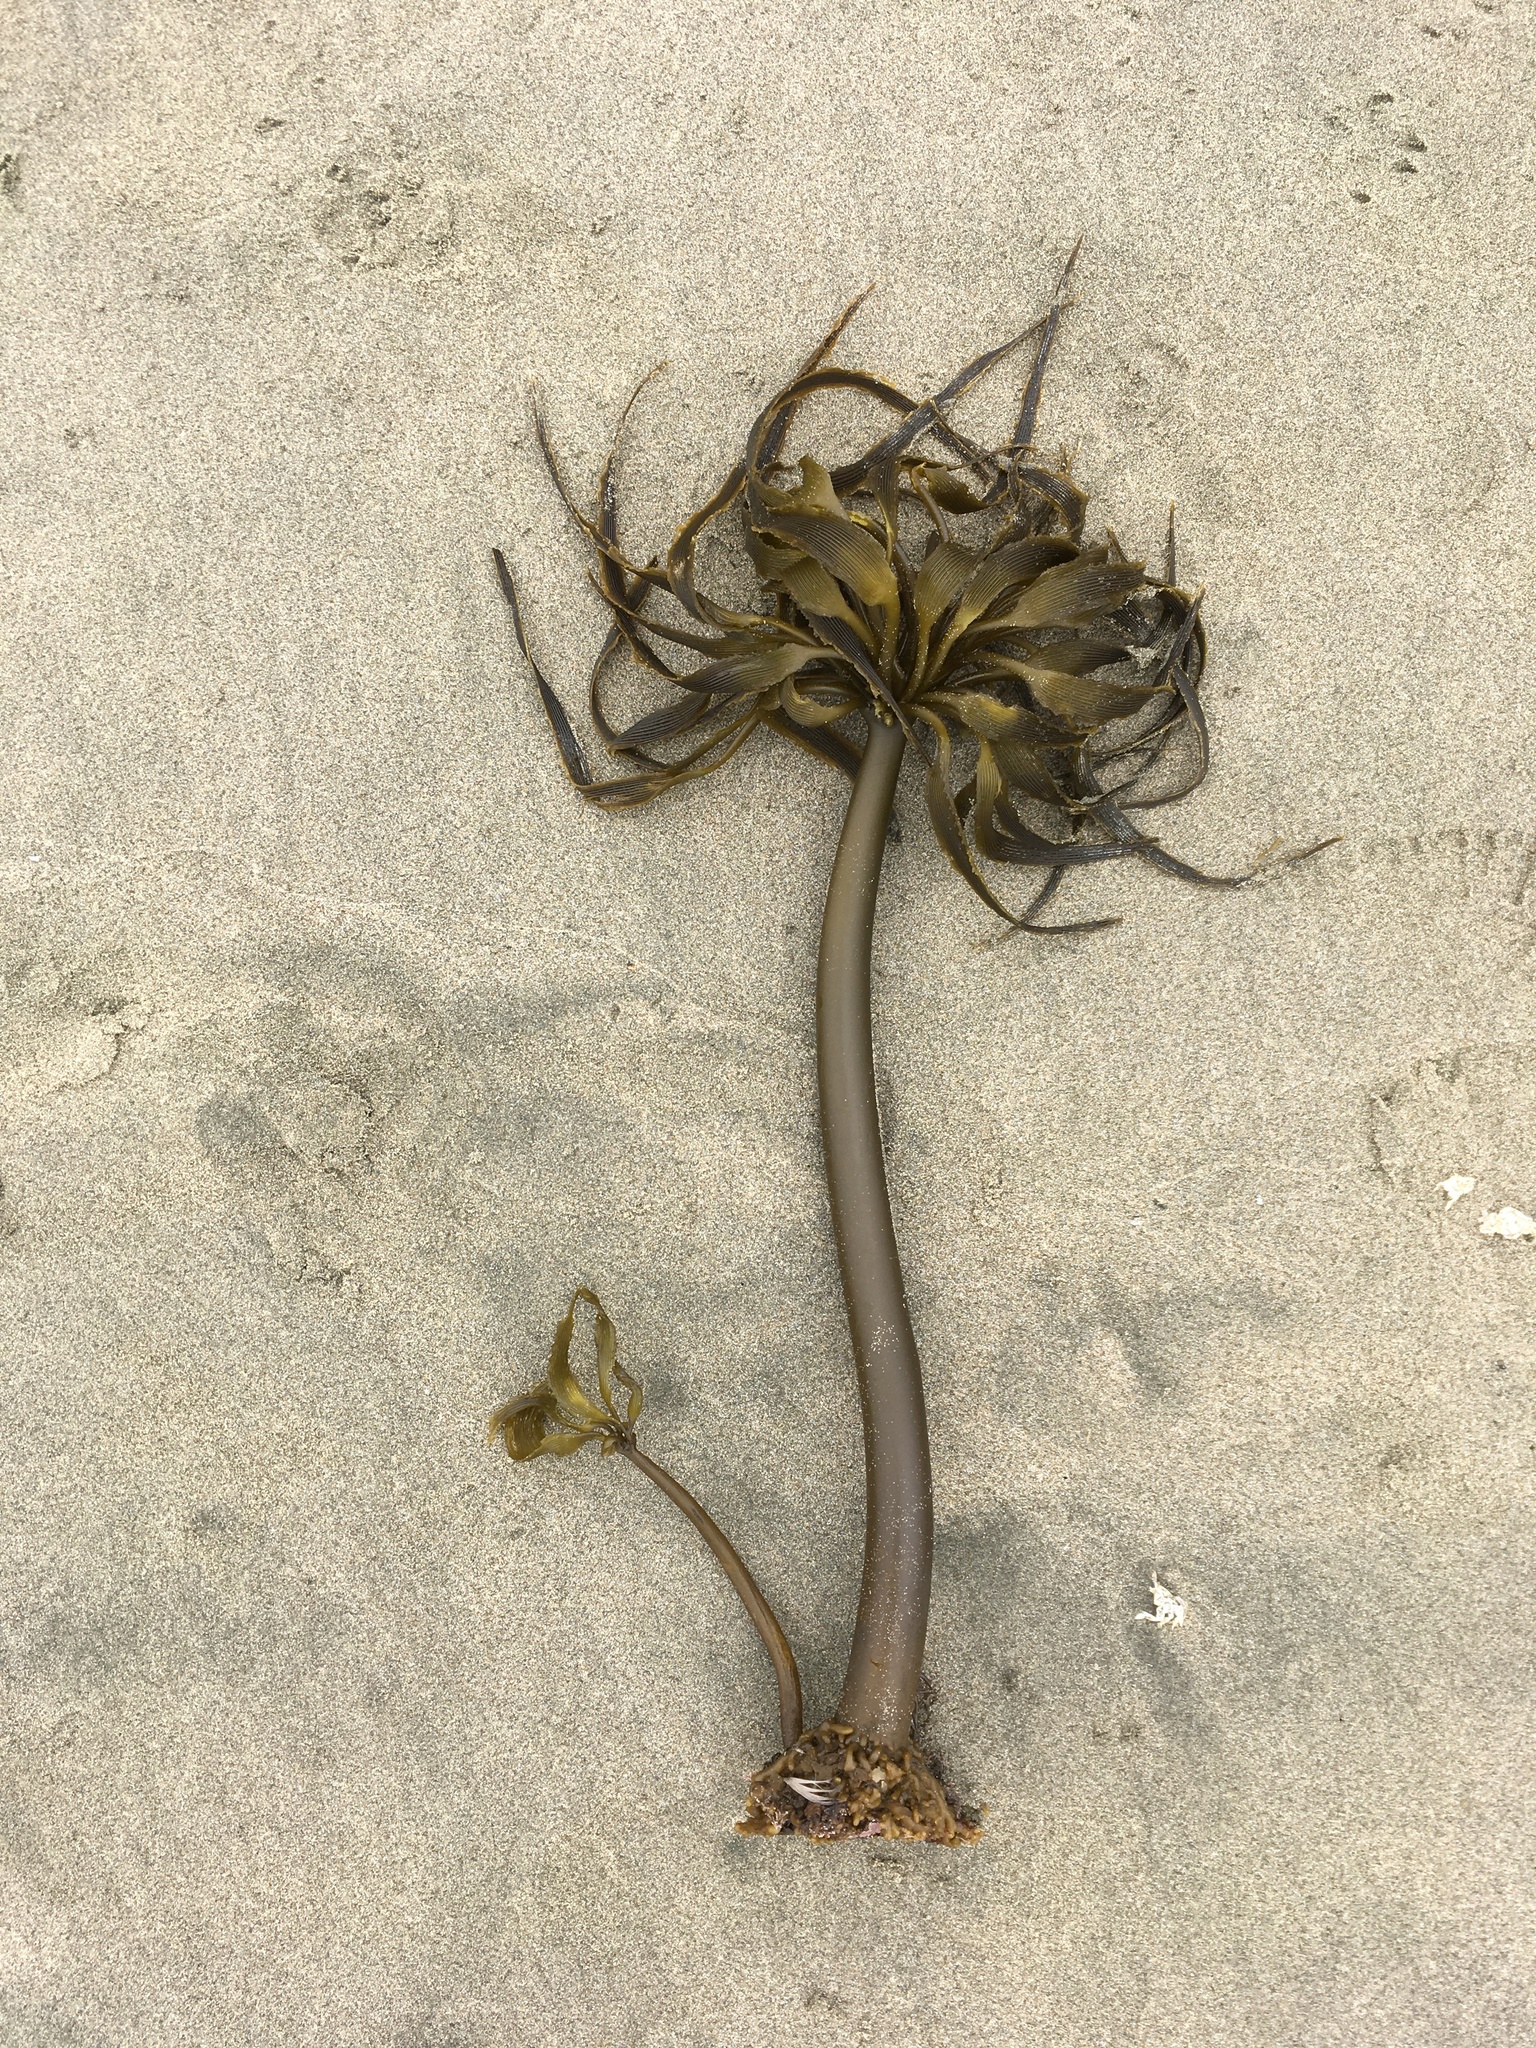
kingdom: Chromista
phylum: Ochrophyta
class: Phaeophyceae
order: Laminariales
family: Laminariaceae
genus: Postelsia
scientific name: Postelsia palmiformis
